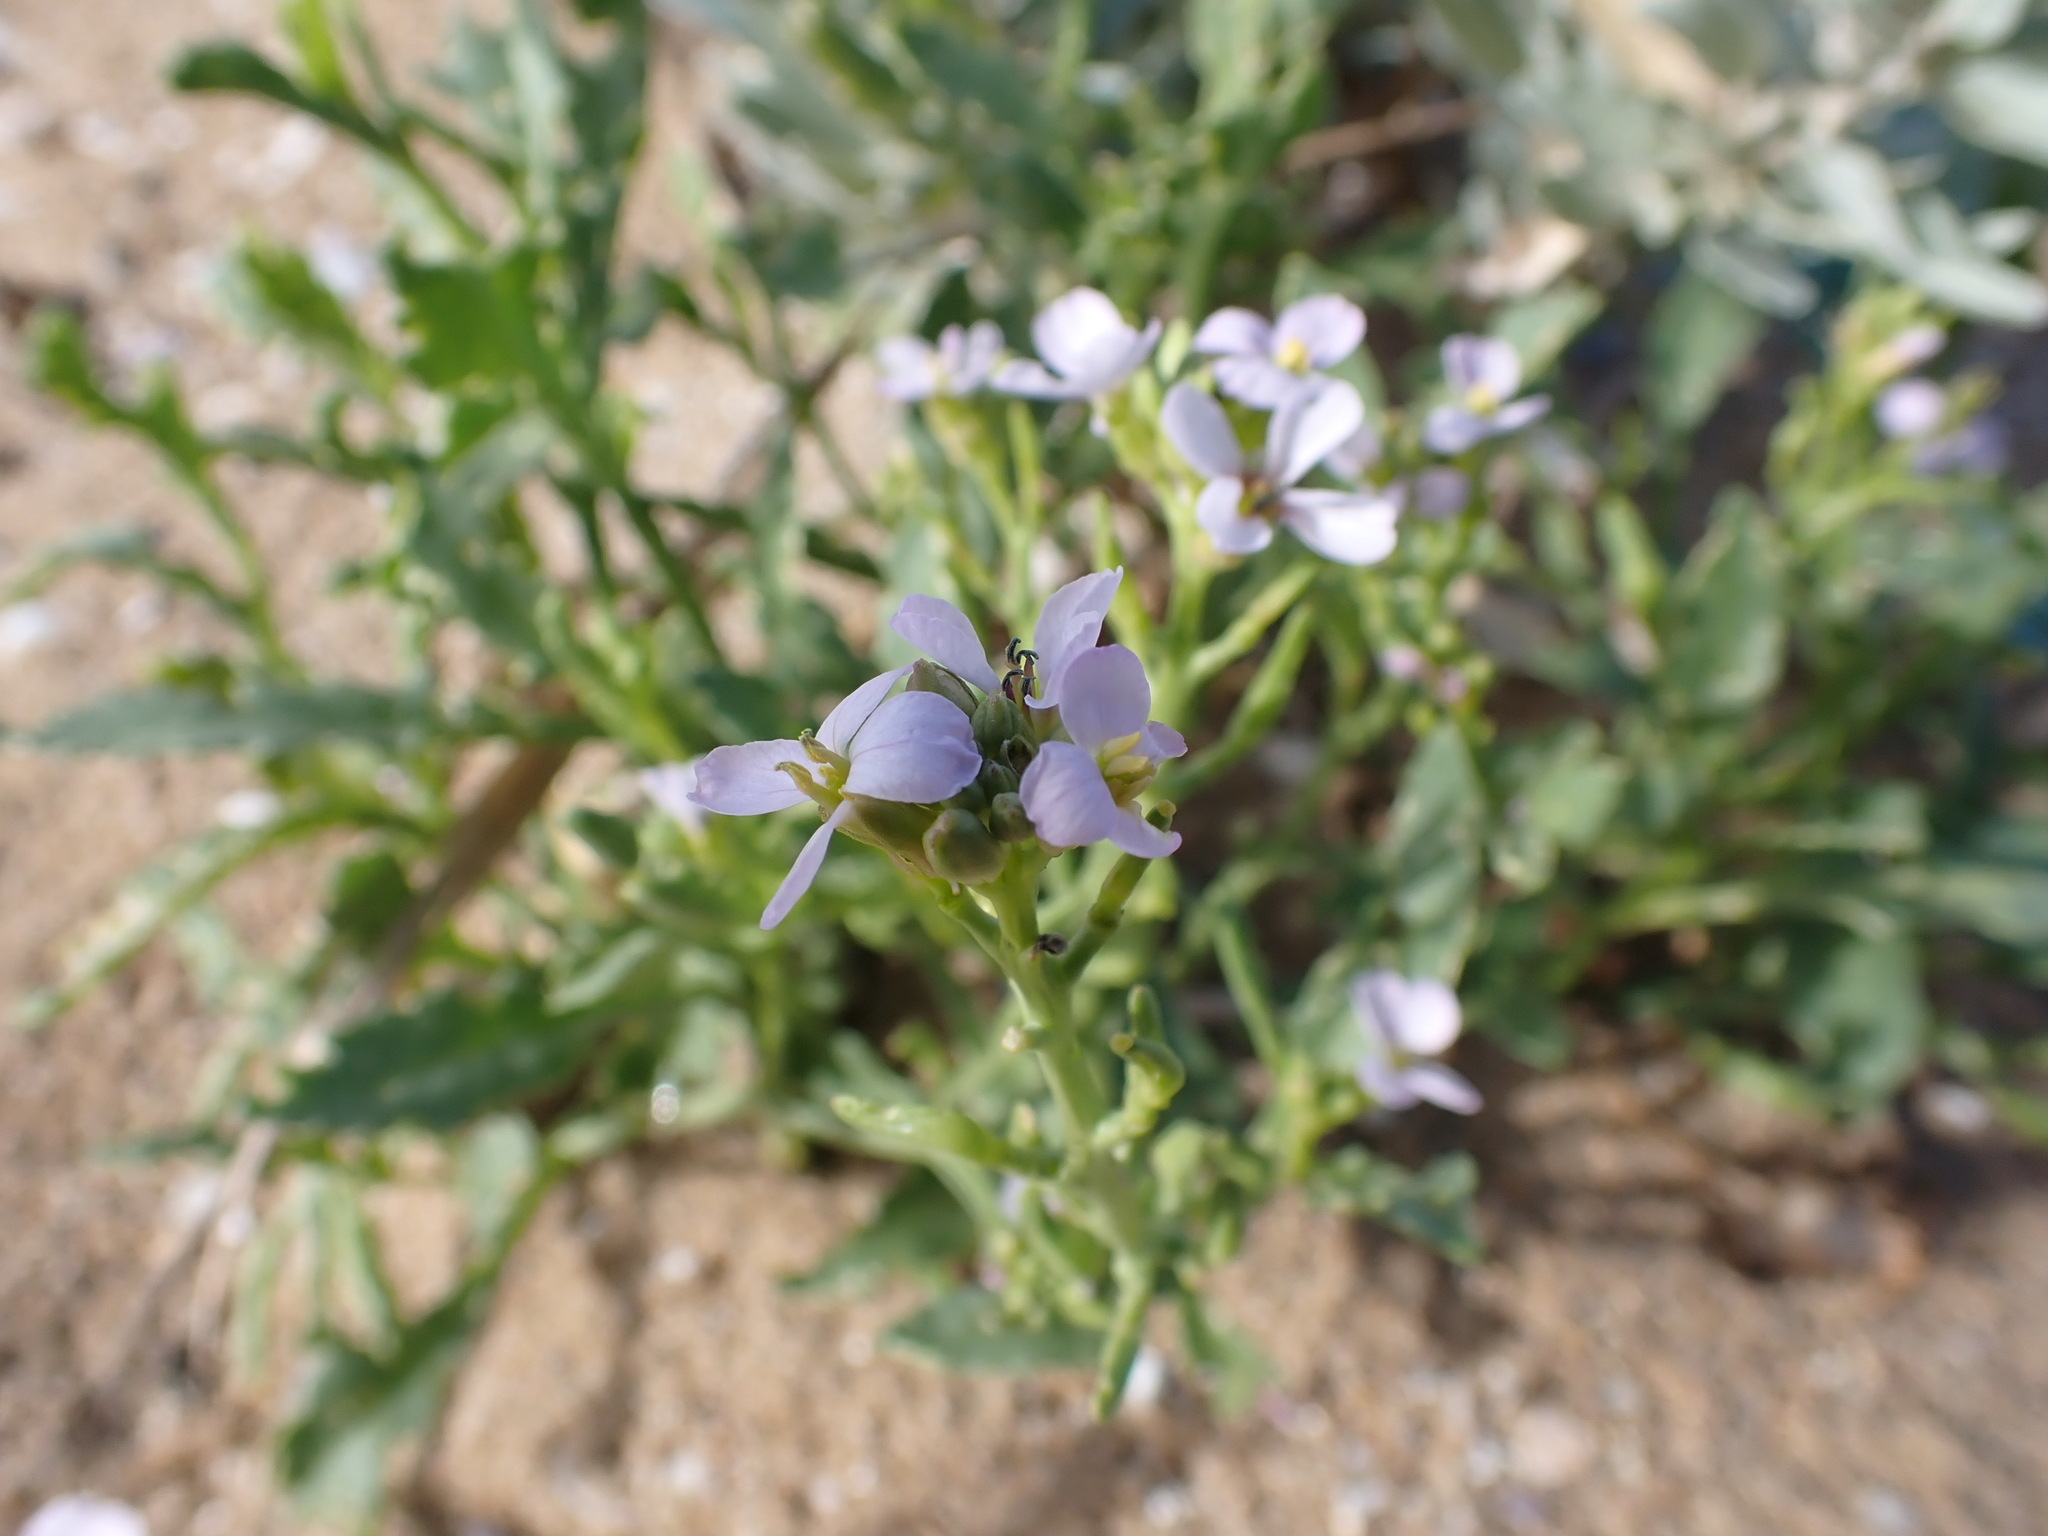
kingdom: Plantae
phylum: Tracheophyta
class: Magnoliopsida
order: Brassicales
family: Brassicaceae
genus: Cakile
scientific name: Cakile maritima
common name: Sea rocket
